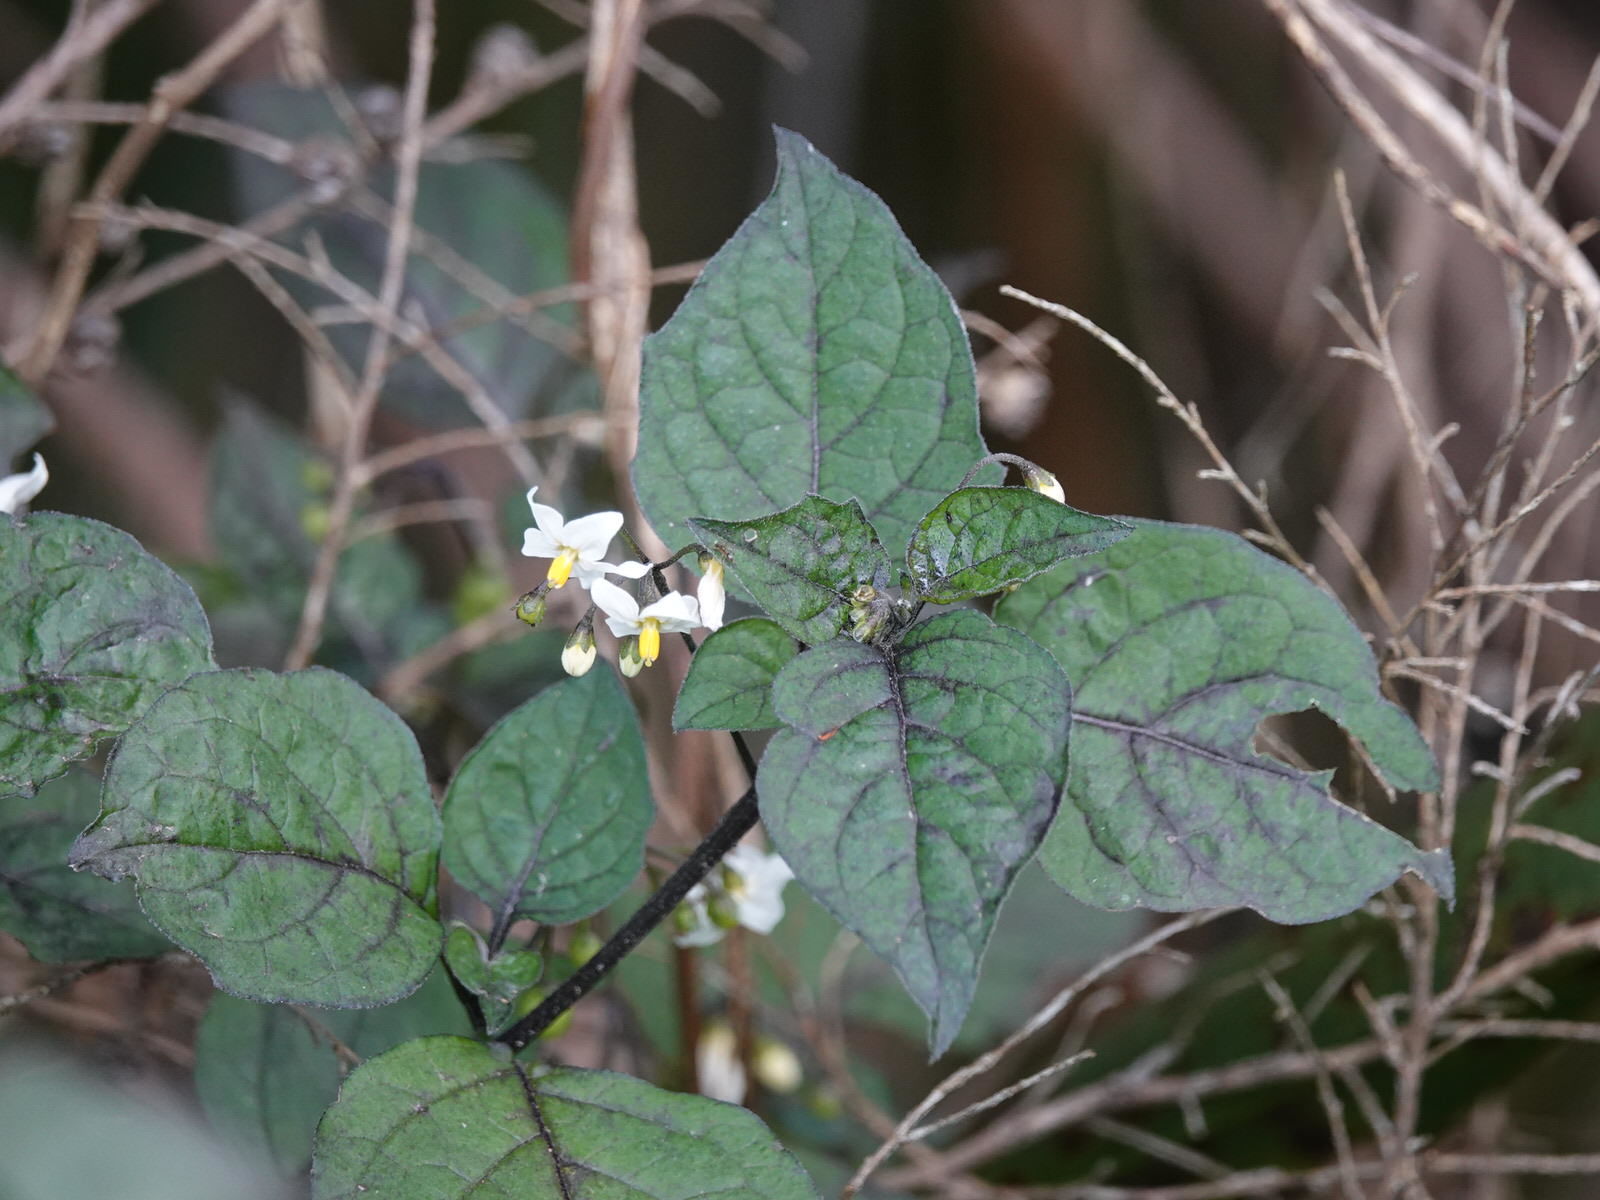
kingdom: Plantae
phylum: Tracheophyta
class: Magnoliopsida
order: Solanales
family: Solanaceae
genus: Solanum
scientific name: Solanum nigrum
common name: Black nightshade
